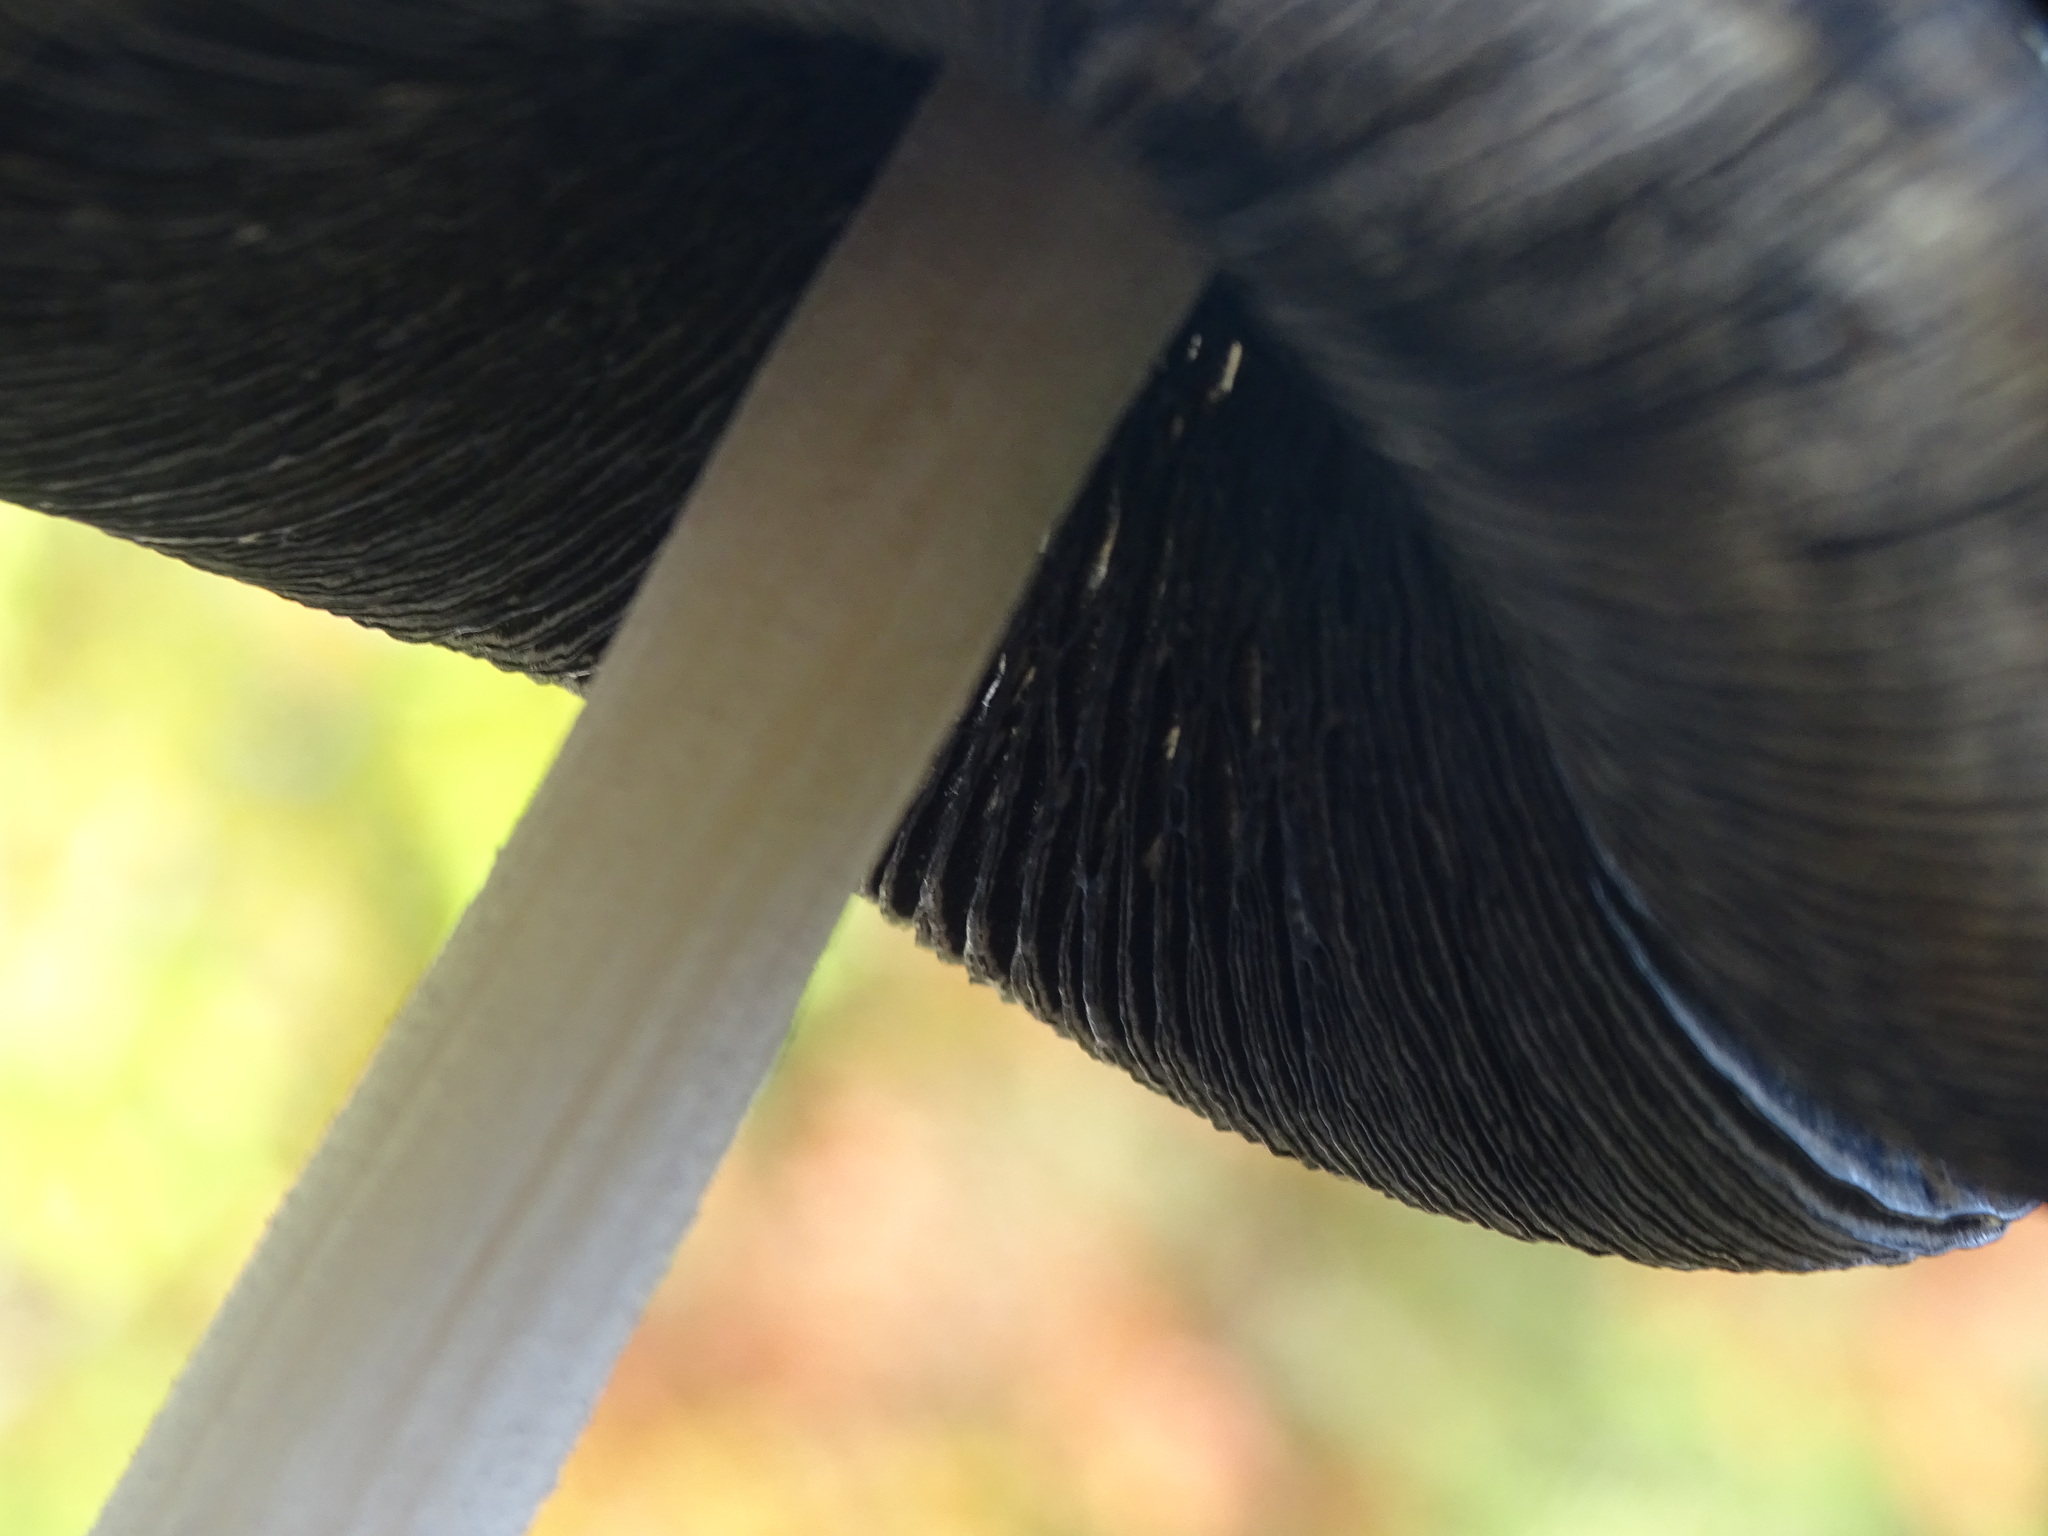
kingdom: Fungi
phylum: Basidiomycota
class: Agaricomycetes
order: Agaricales
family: Psathyrellaceae
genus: Coprinopsis
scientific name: Coprinopsis picacea
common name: Magpie inkcap
